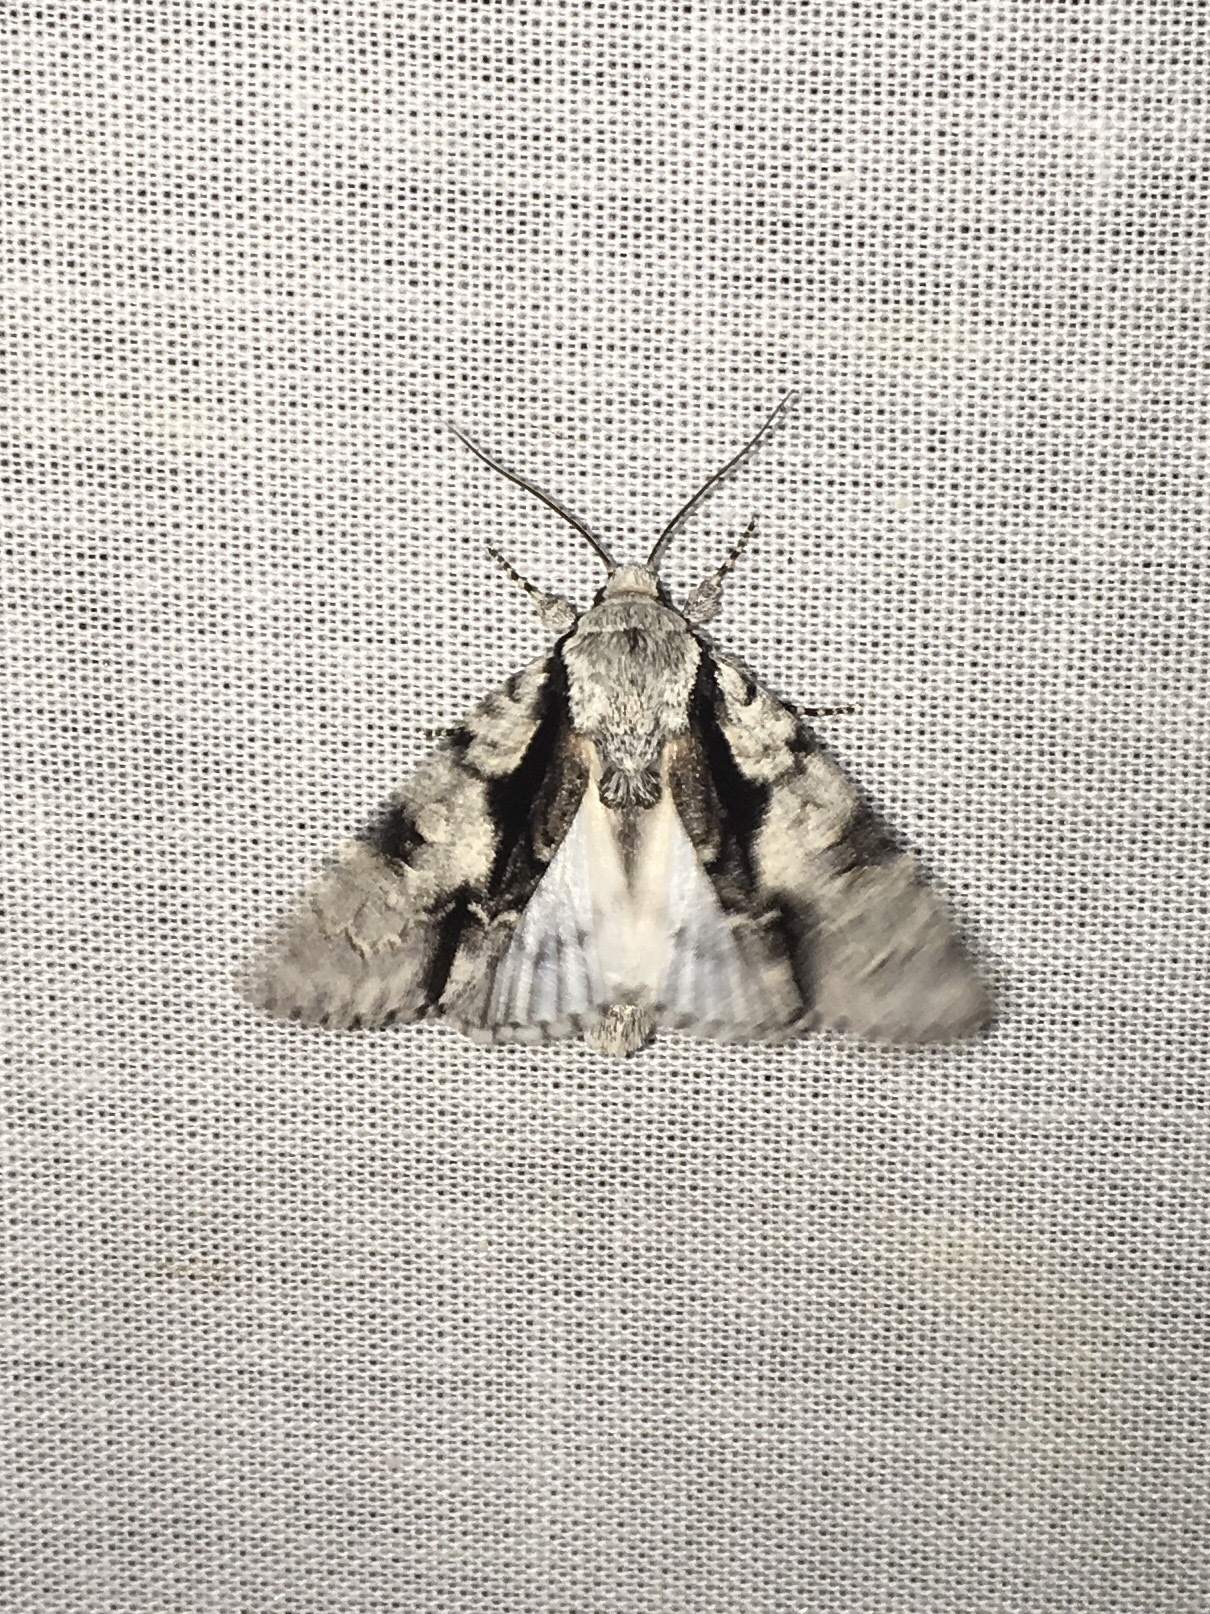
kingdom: Animalia
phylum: Arthropoda
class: Insecta
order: Lepidoptera
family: Noctuidae
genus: Acronicta
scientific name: Acronicta funeralis
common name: Funerary dagger
